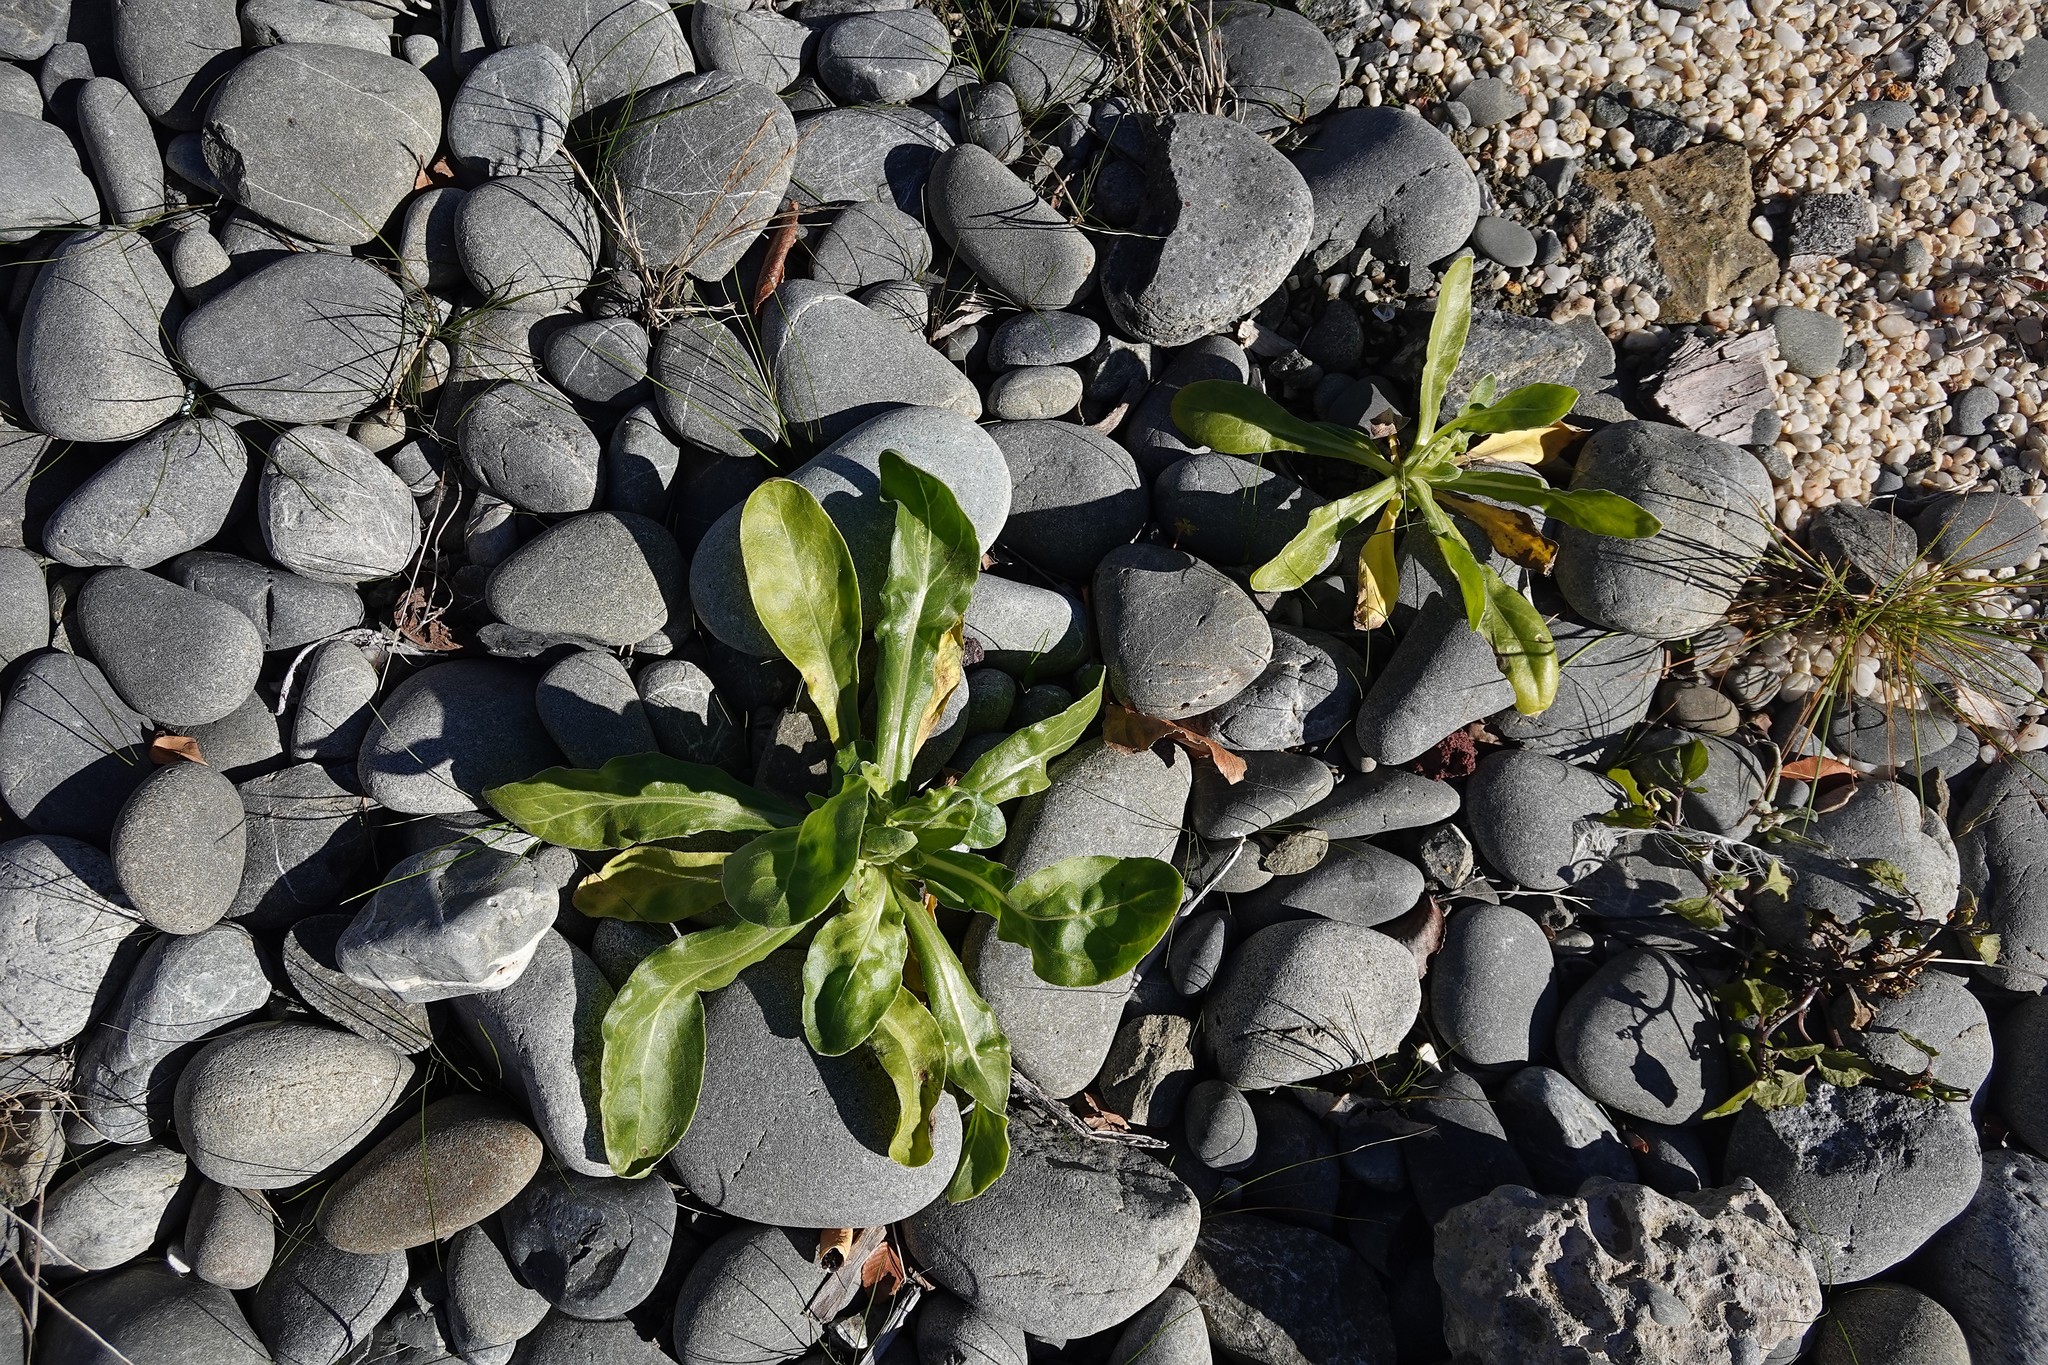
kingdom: Plantae
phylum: Tracheophyta
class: Magnoliopsida
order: Asterales
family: Asteraceae
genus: Calendula
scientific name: Calendula officinalis
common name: Pot marigold
